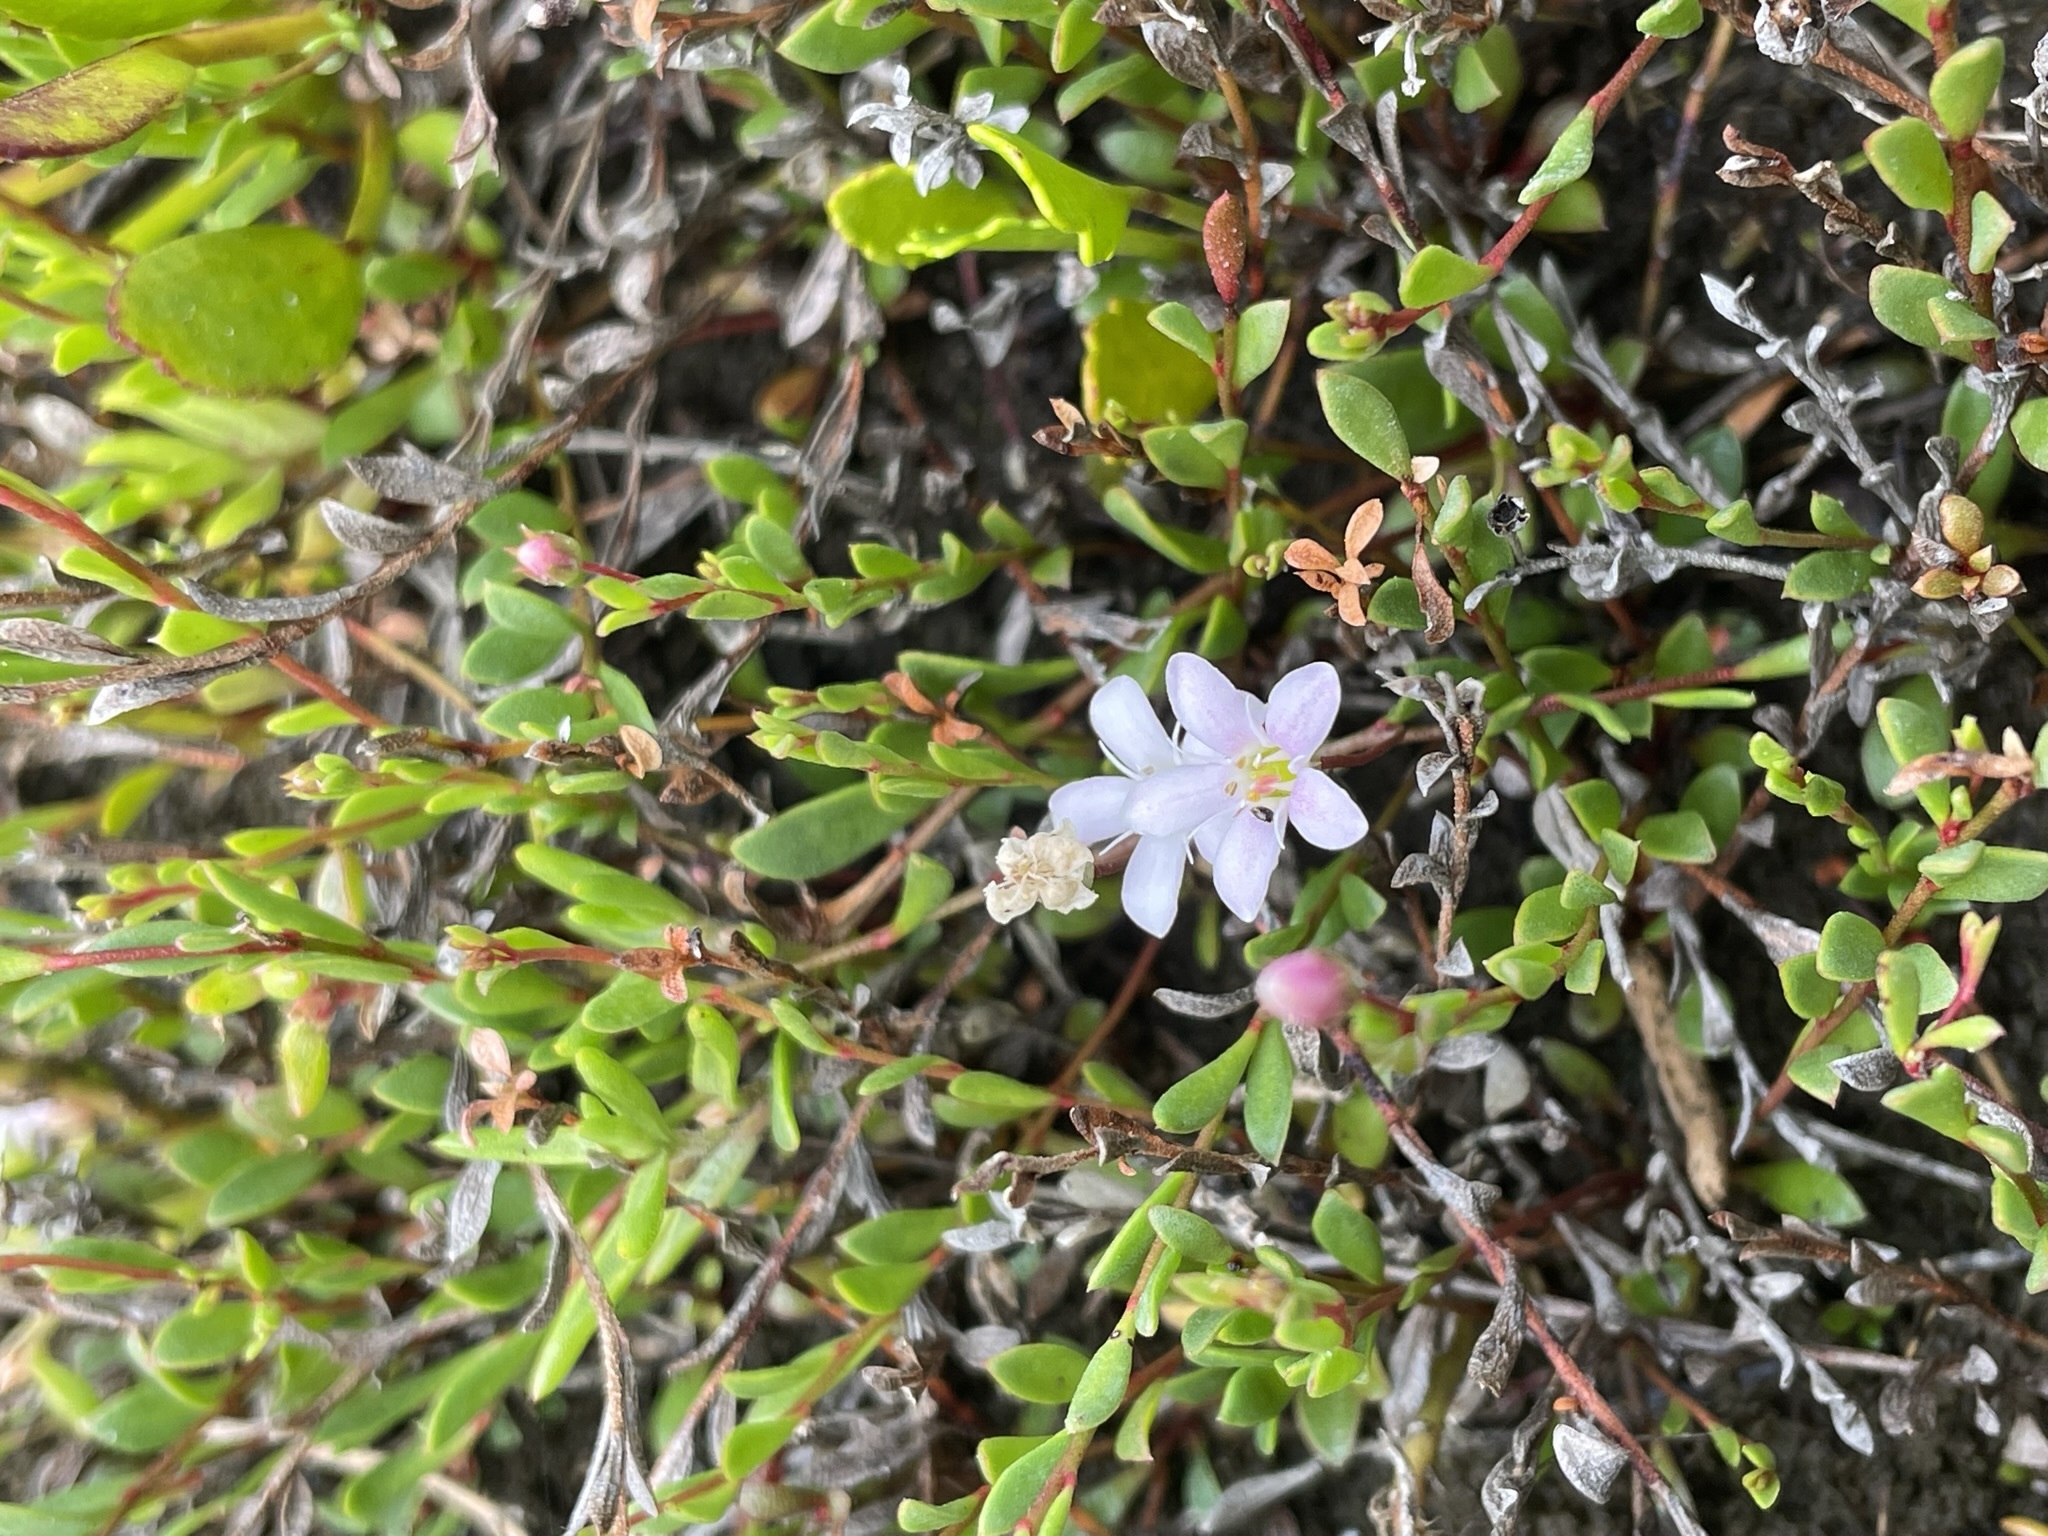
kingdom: Plantae
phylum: Tracheophyta
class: Magnoliopsida
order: Ericales
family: Primulaceae
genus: Samolus
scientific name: Samolus repens
